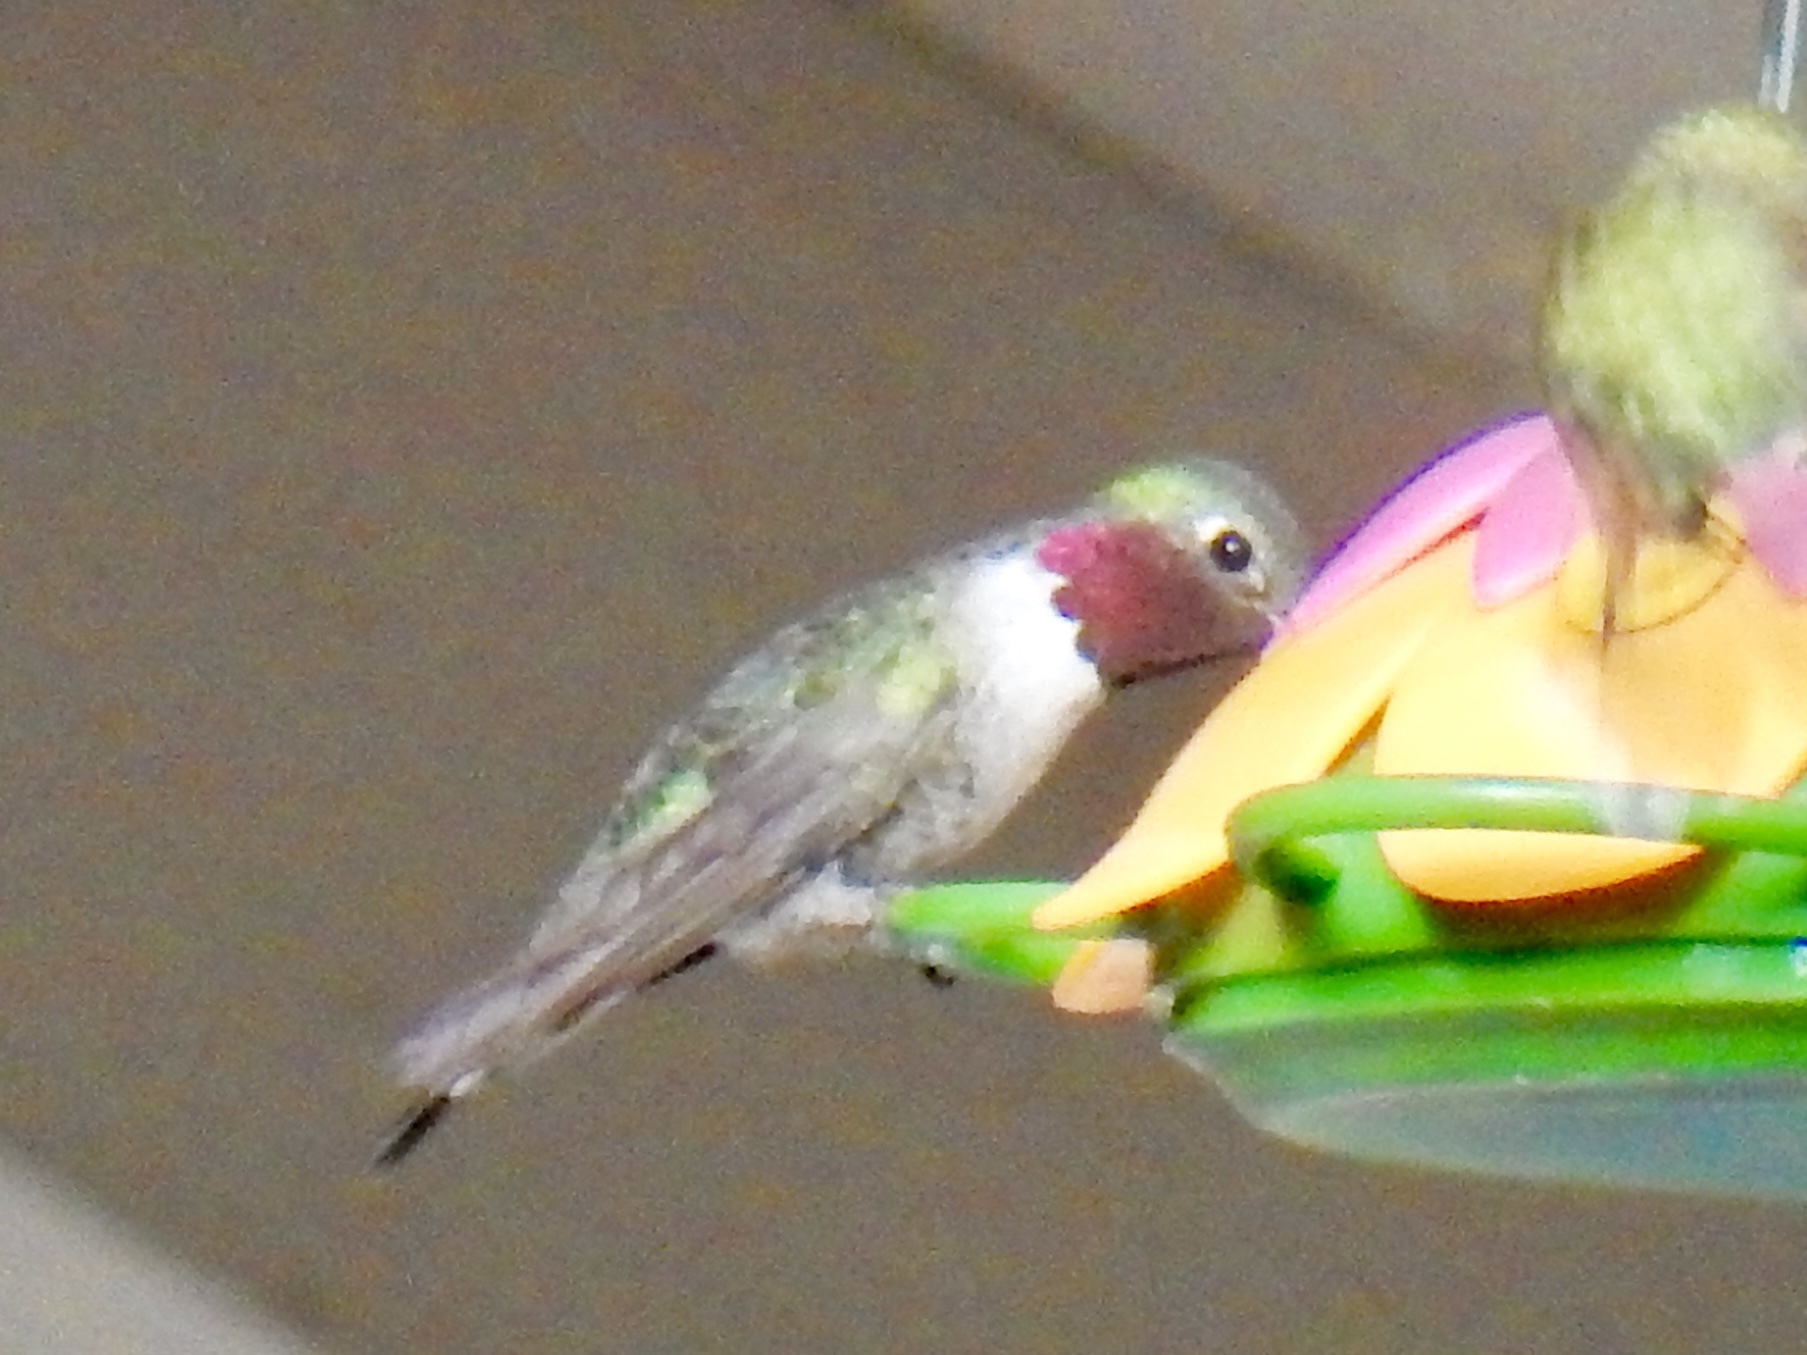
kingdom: Animalia
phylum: Chordata
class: Aves
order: Apodiformes
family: Trochilidae
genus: Selasphorus
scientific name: Selasphorus platycercus
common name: Broad-tailed hummingbird
